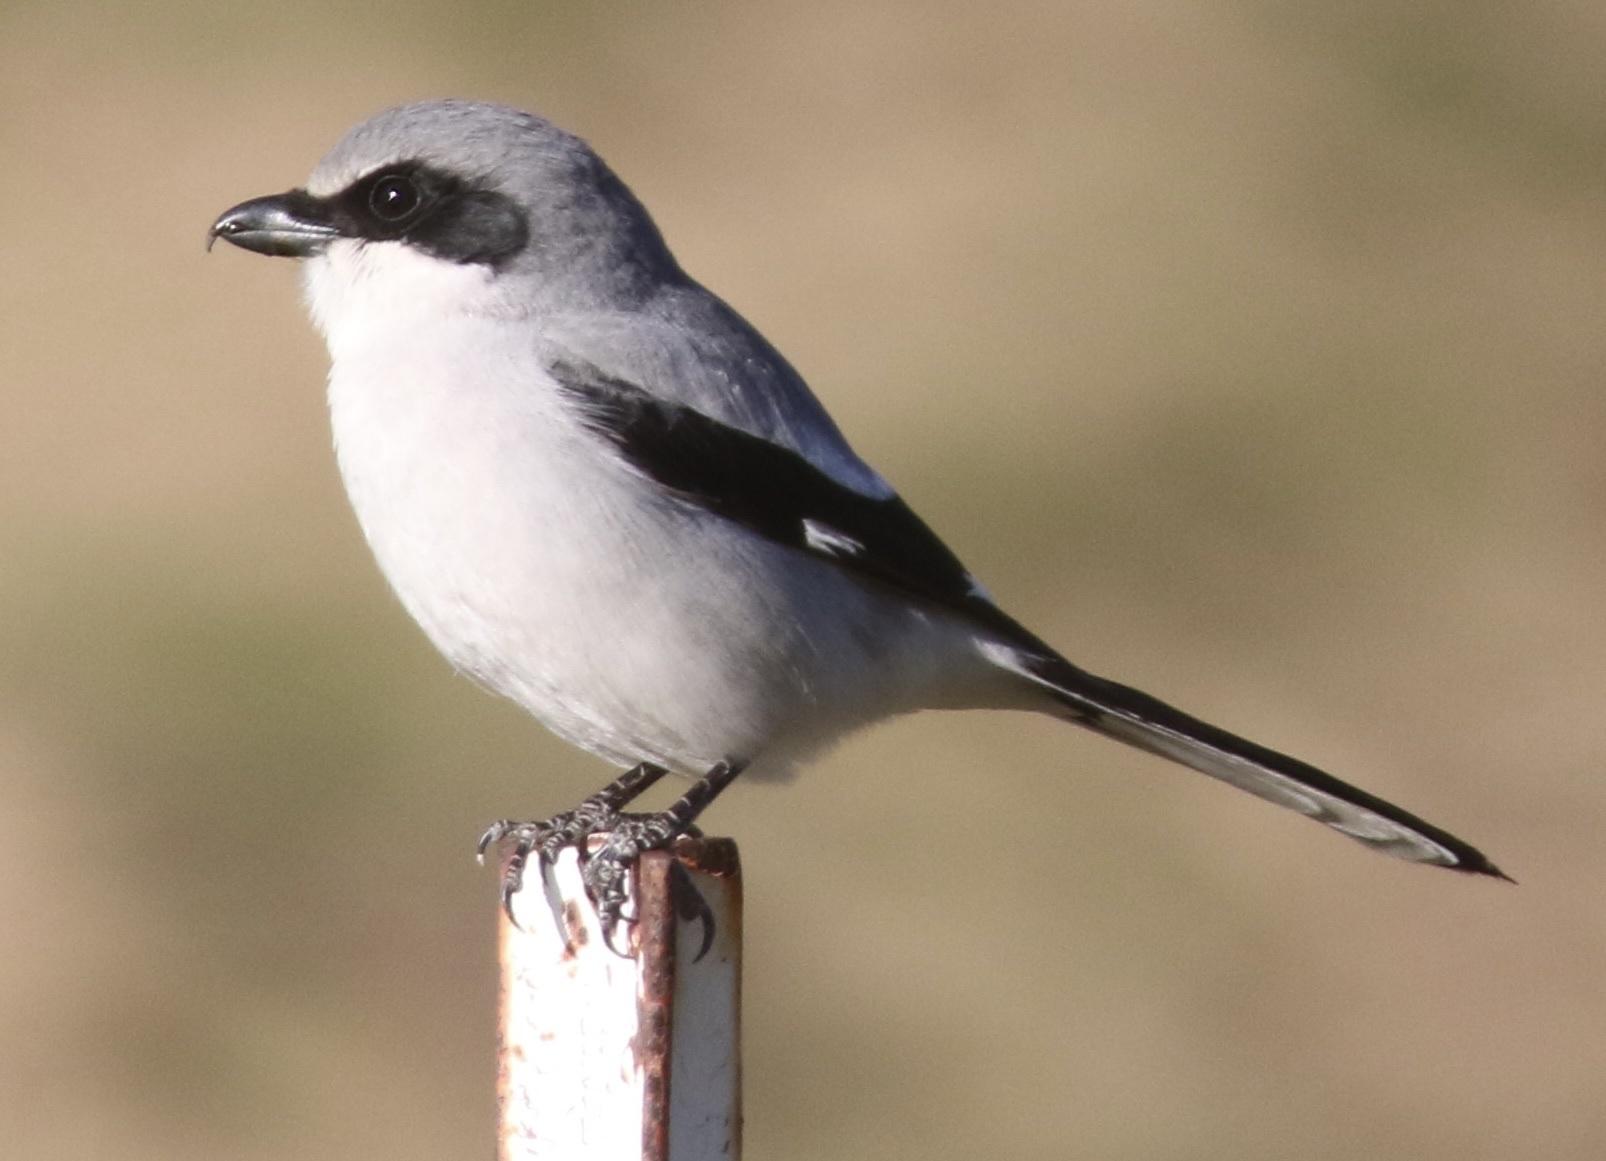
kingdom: Animalia
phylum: Chordata
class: Aves
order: Passeriformes
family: Laniidae
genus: Lanius
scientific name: Lanius ludovicianus
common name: Loggerhead shrike
